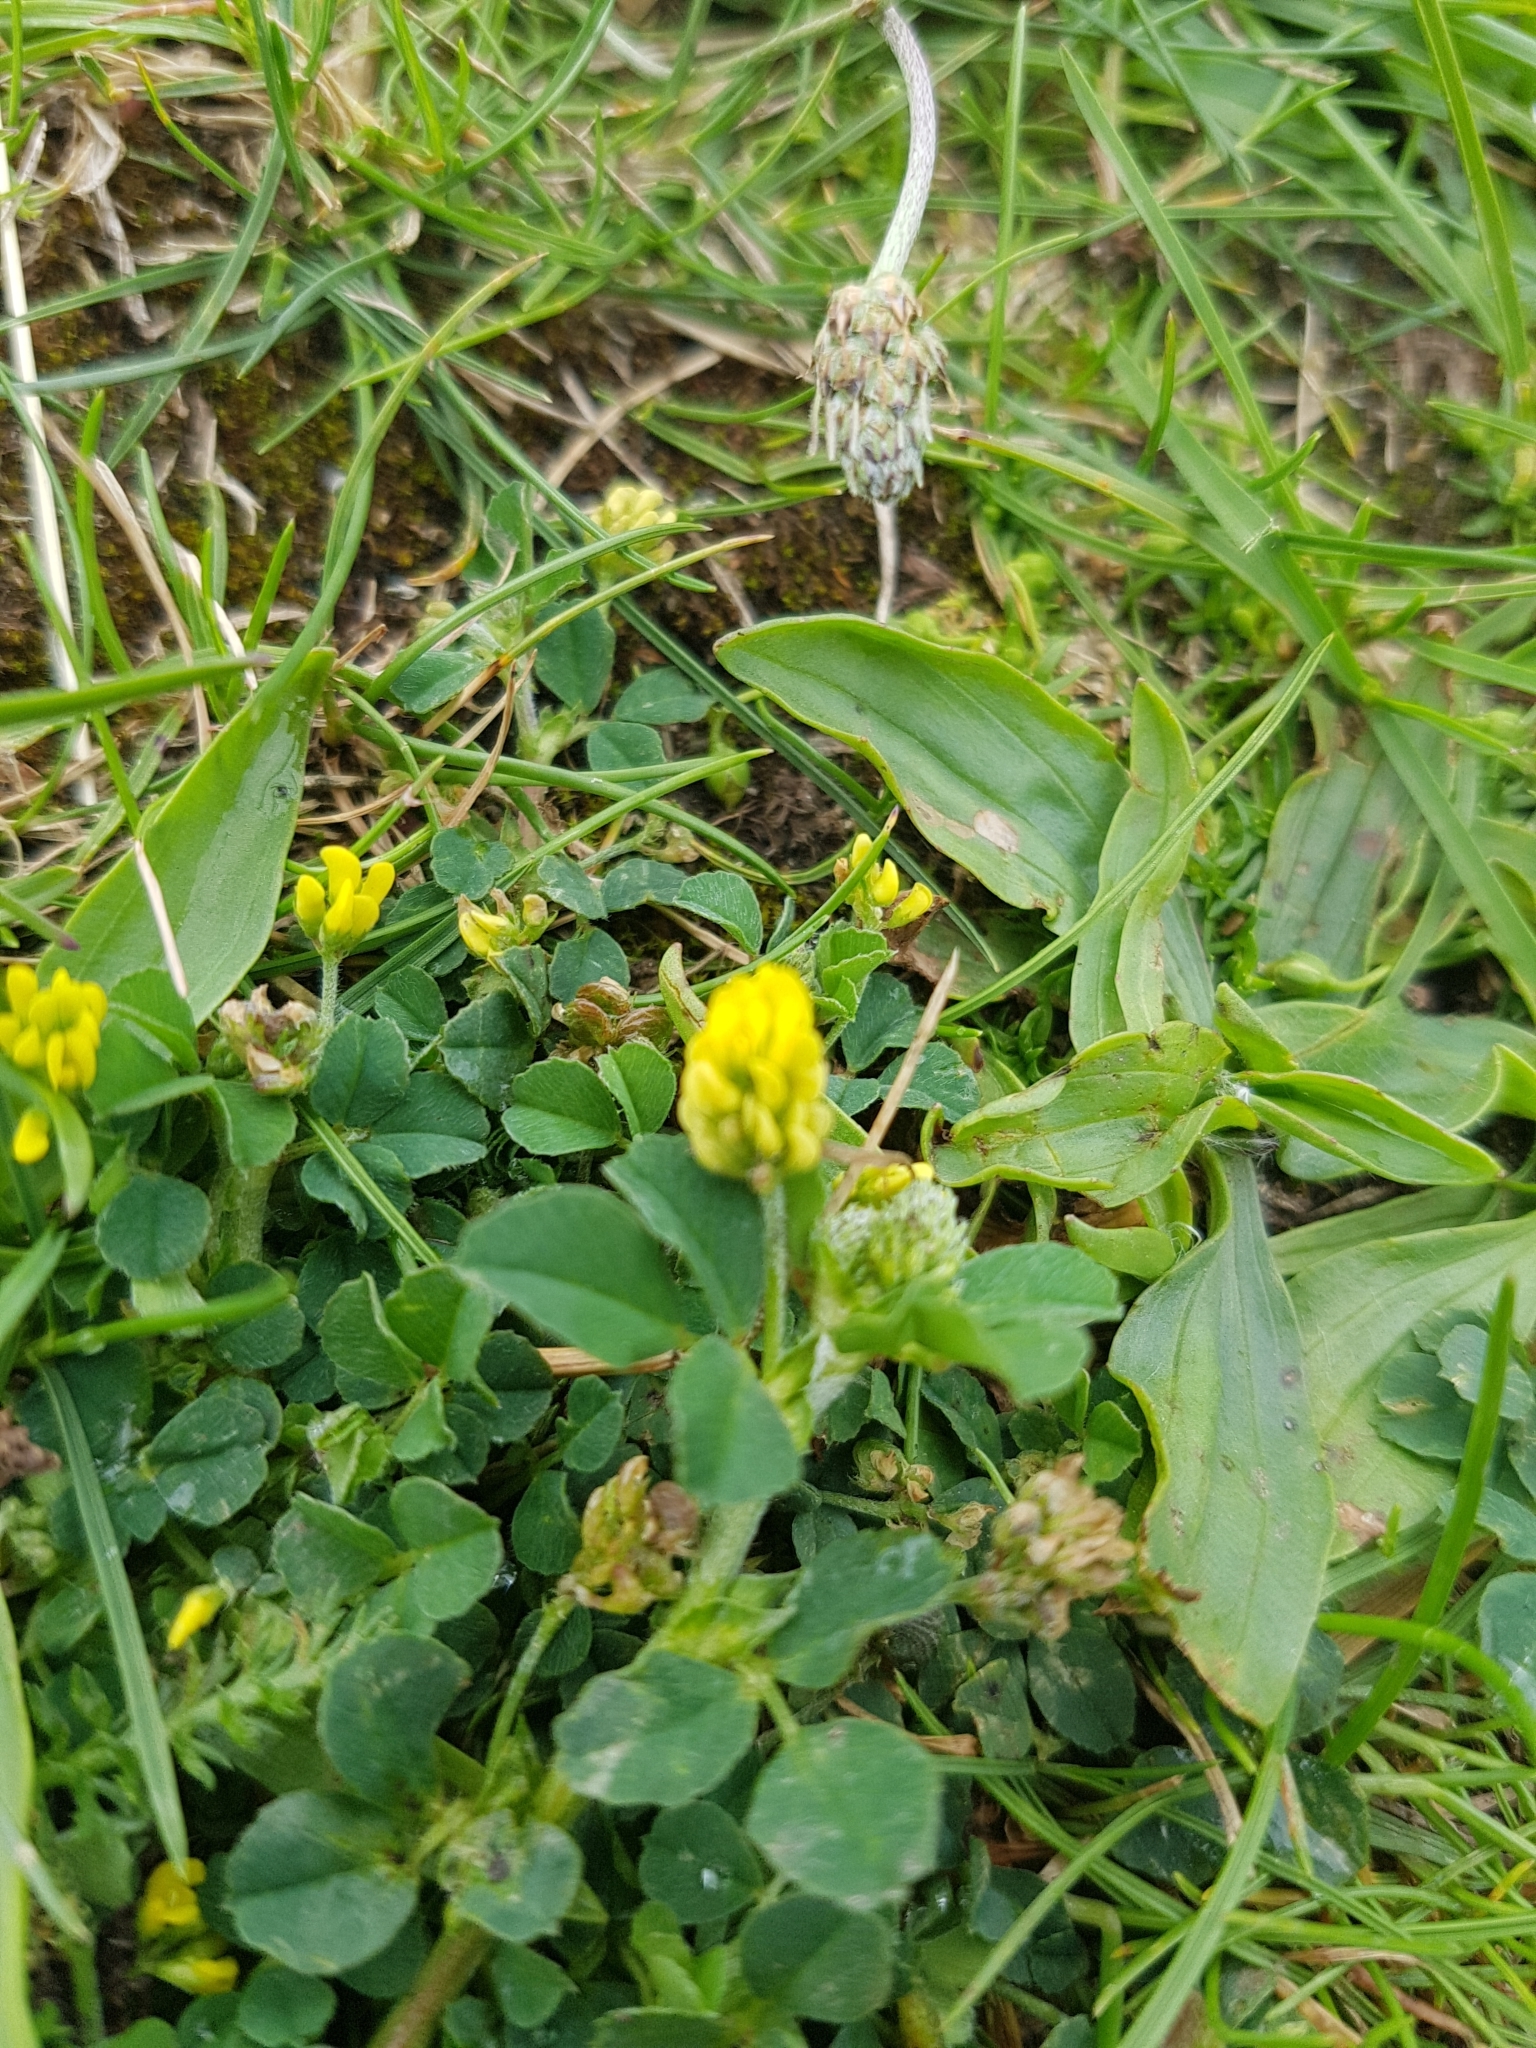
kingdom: Plantae
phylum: Tracheophyta
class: Magnoliopsida
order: Fabales
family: Fabaceae
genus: Medicago
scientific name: Medicago lupulina
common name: Black medick
